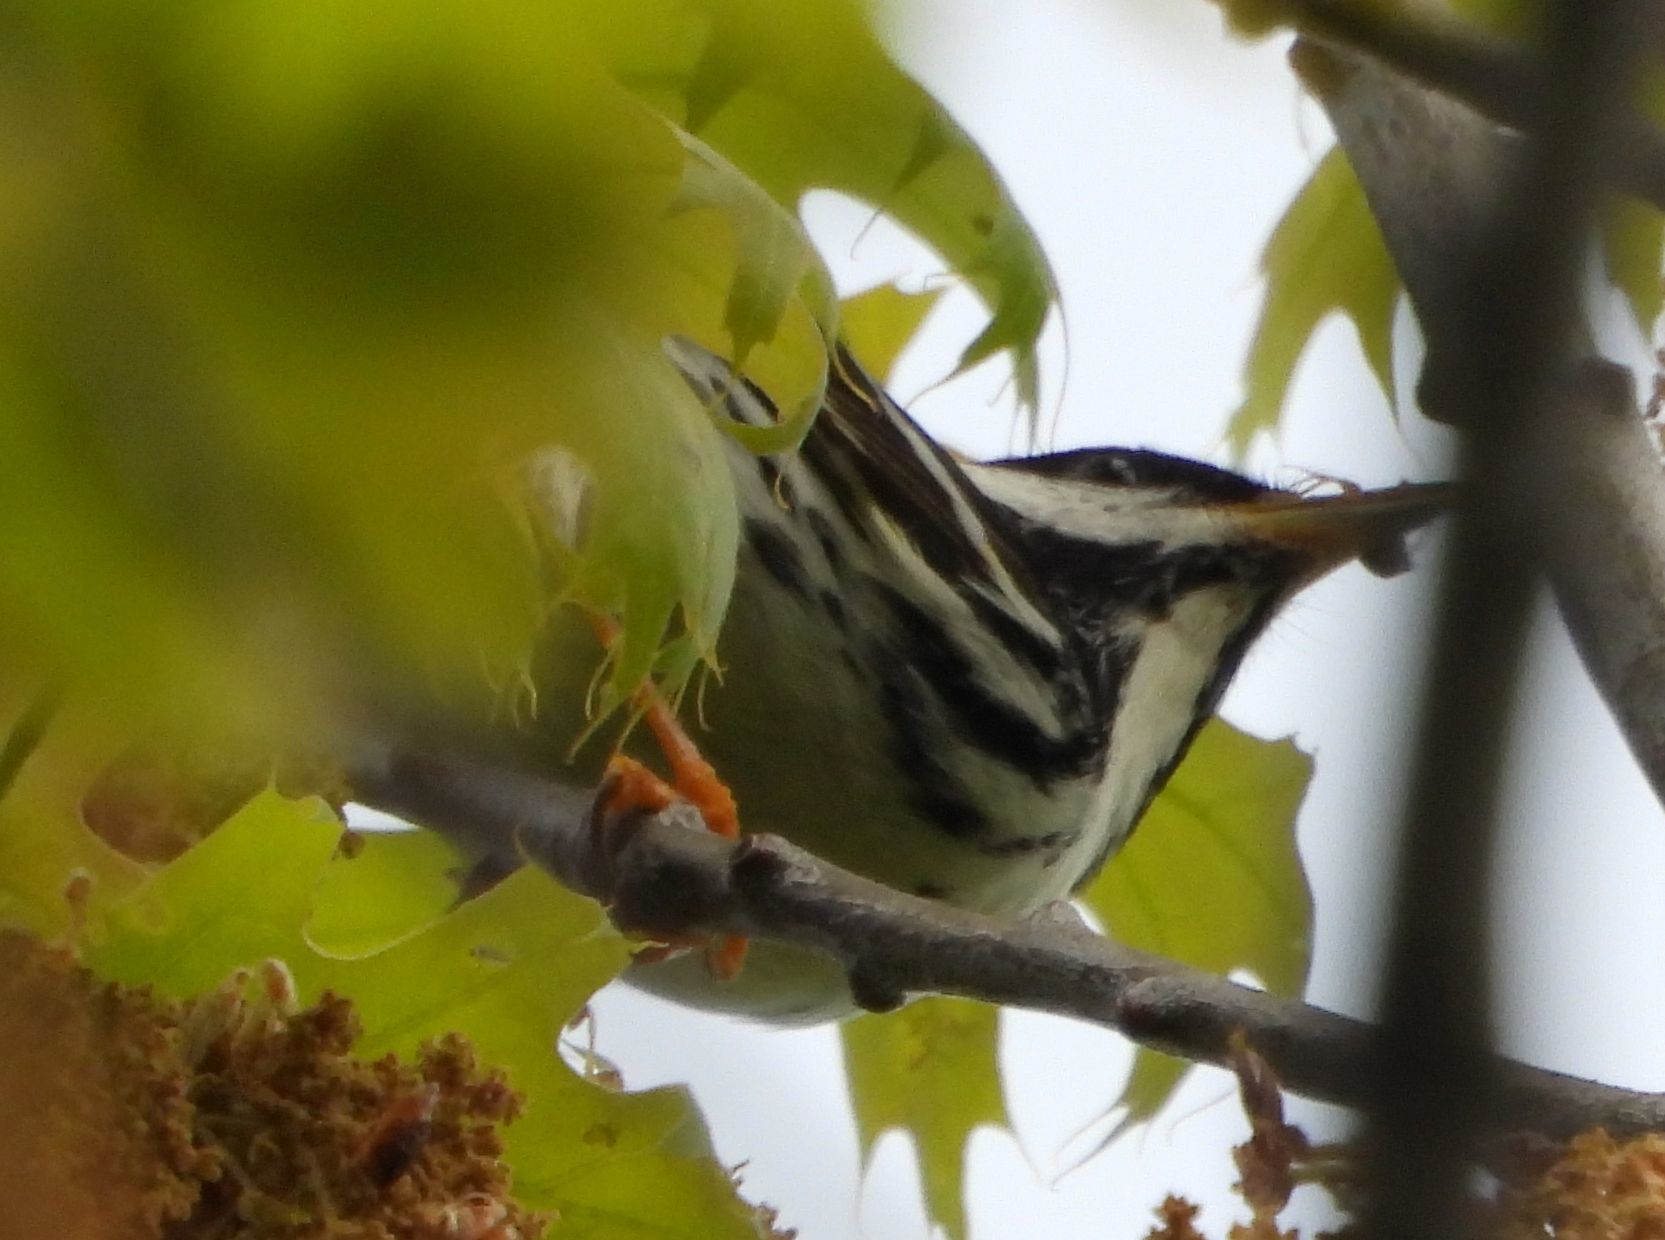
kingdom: Animalia
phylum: Chordata
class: Aves
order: Passeriformes
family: Parulidae
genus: Setophaga
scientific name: Setophaga striata
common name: Blackpoll warbler
